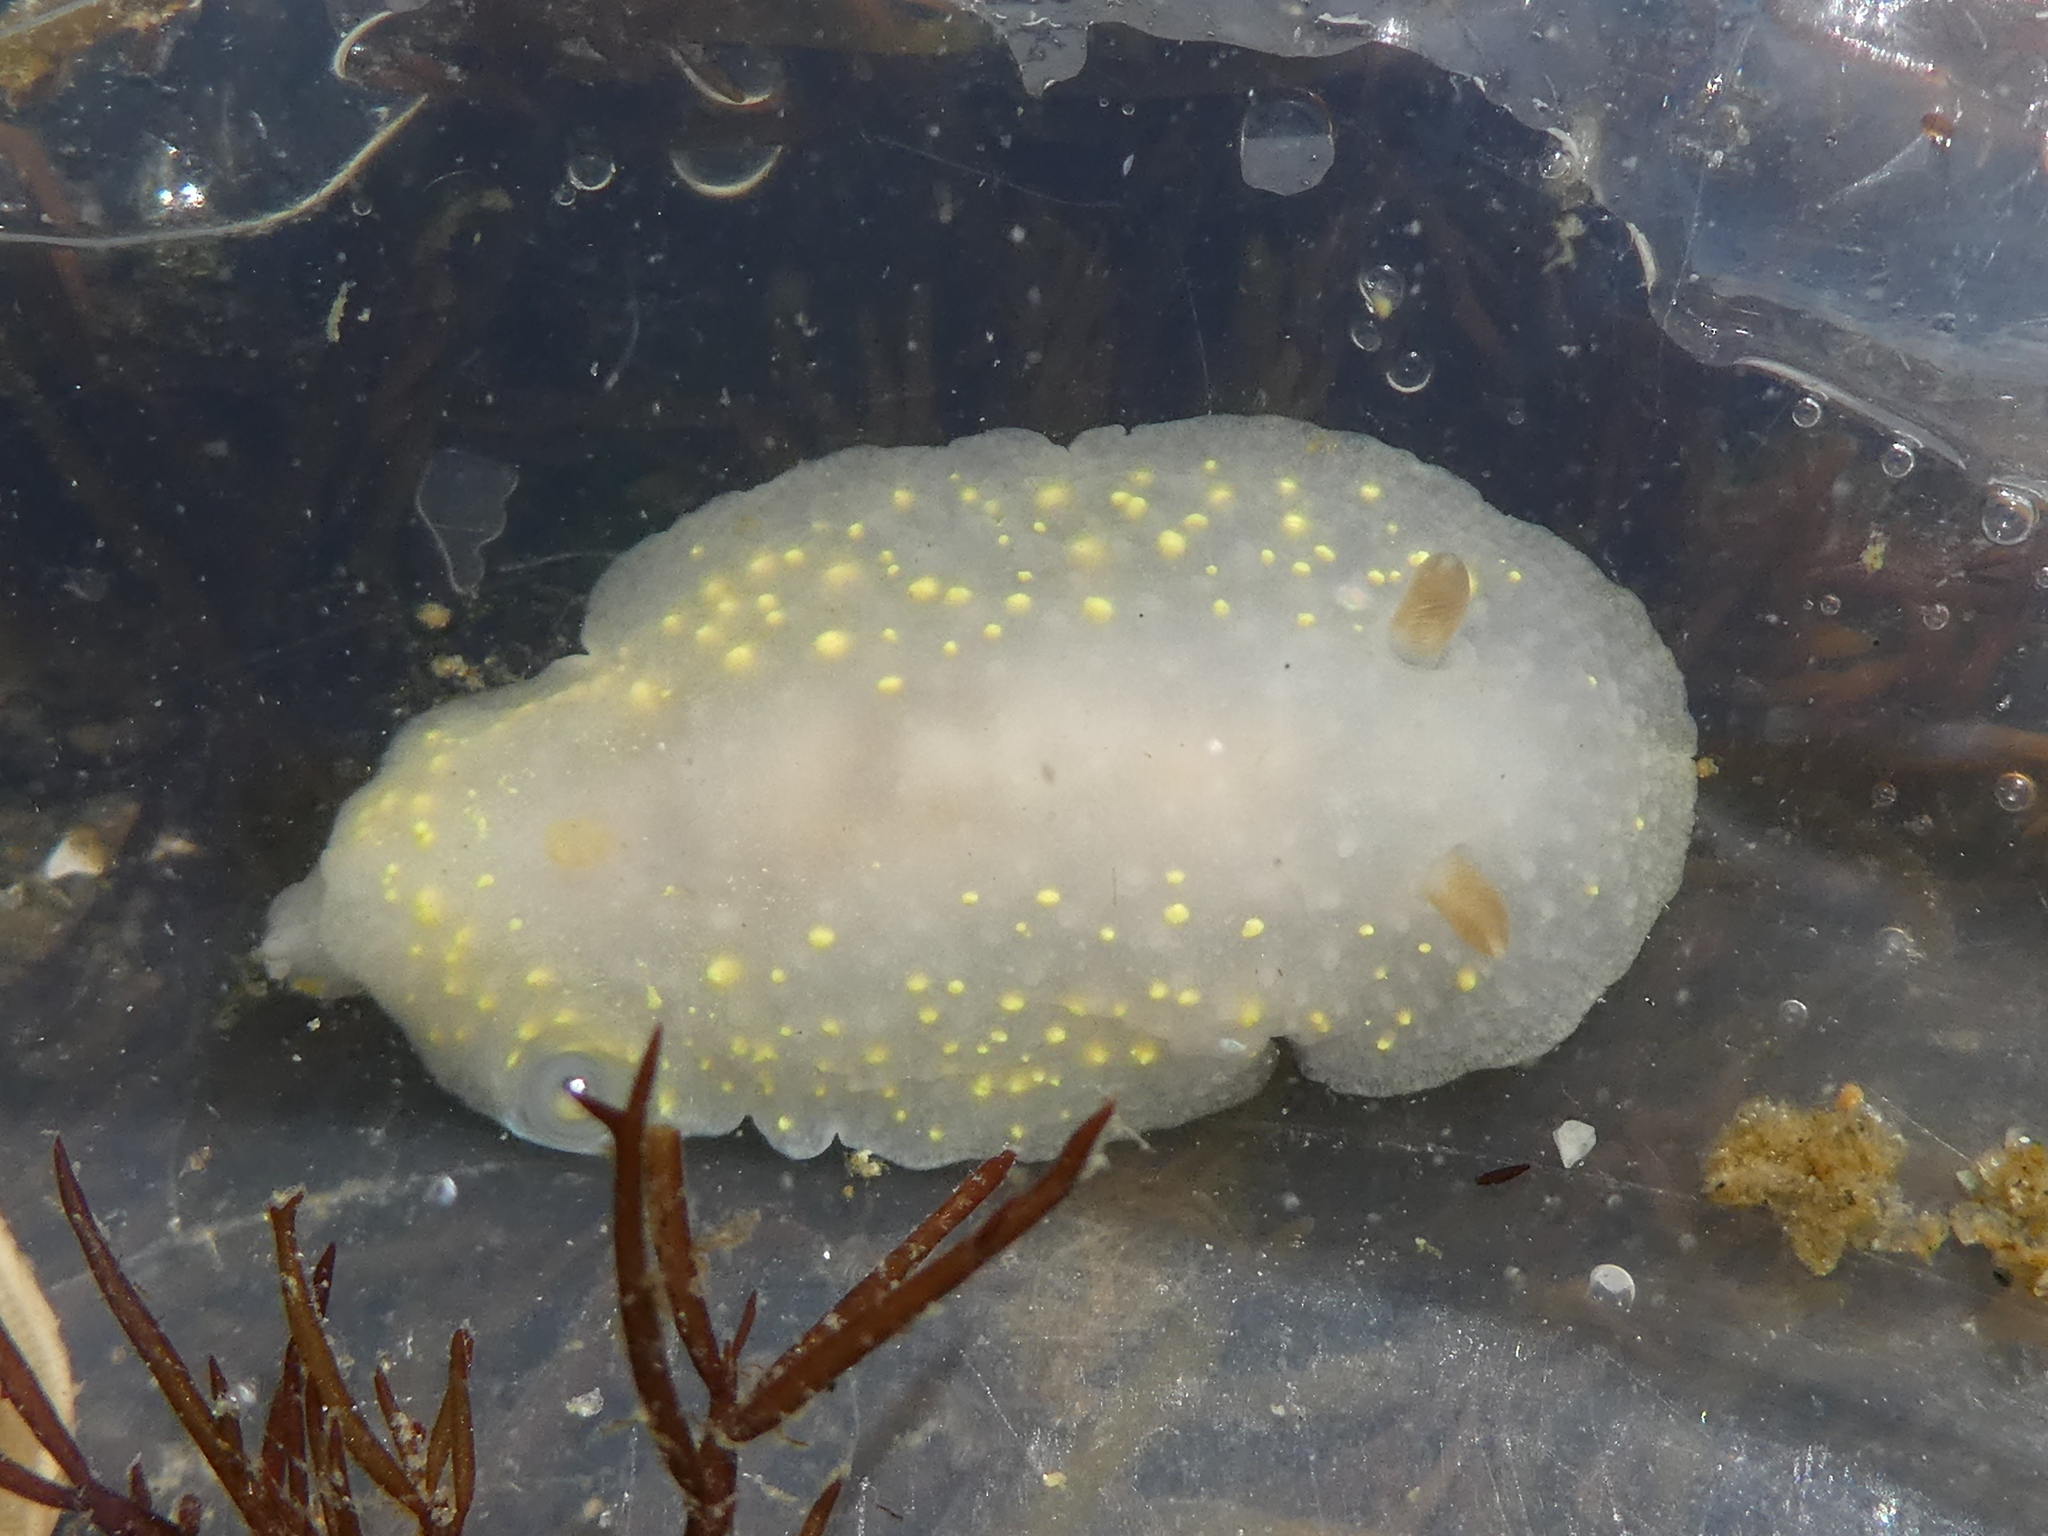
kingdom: Animalia
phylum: Mollusca
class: Gastropoda
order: Nudibranchia
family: Cadlinidae
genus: Cadlina
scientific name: Cadlina modesta
